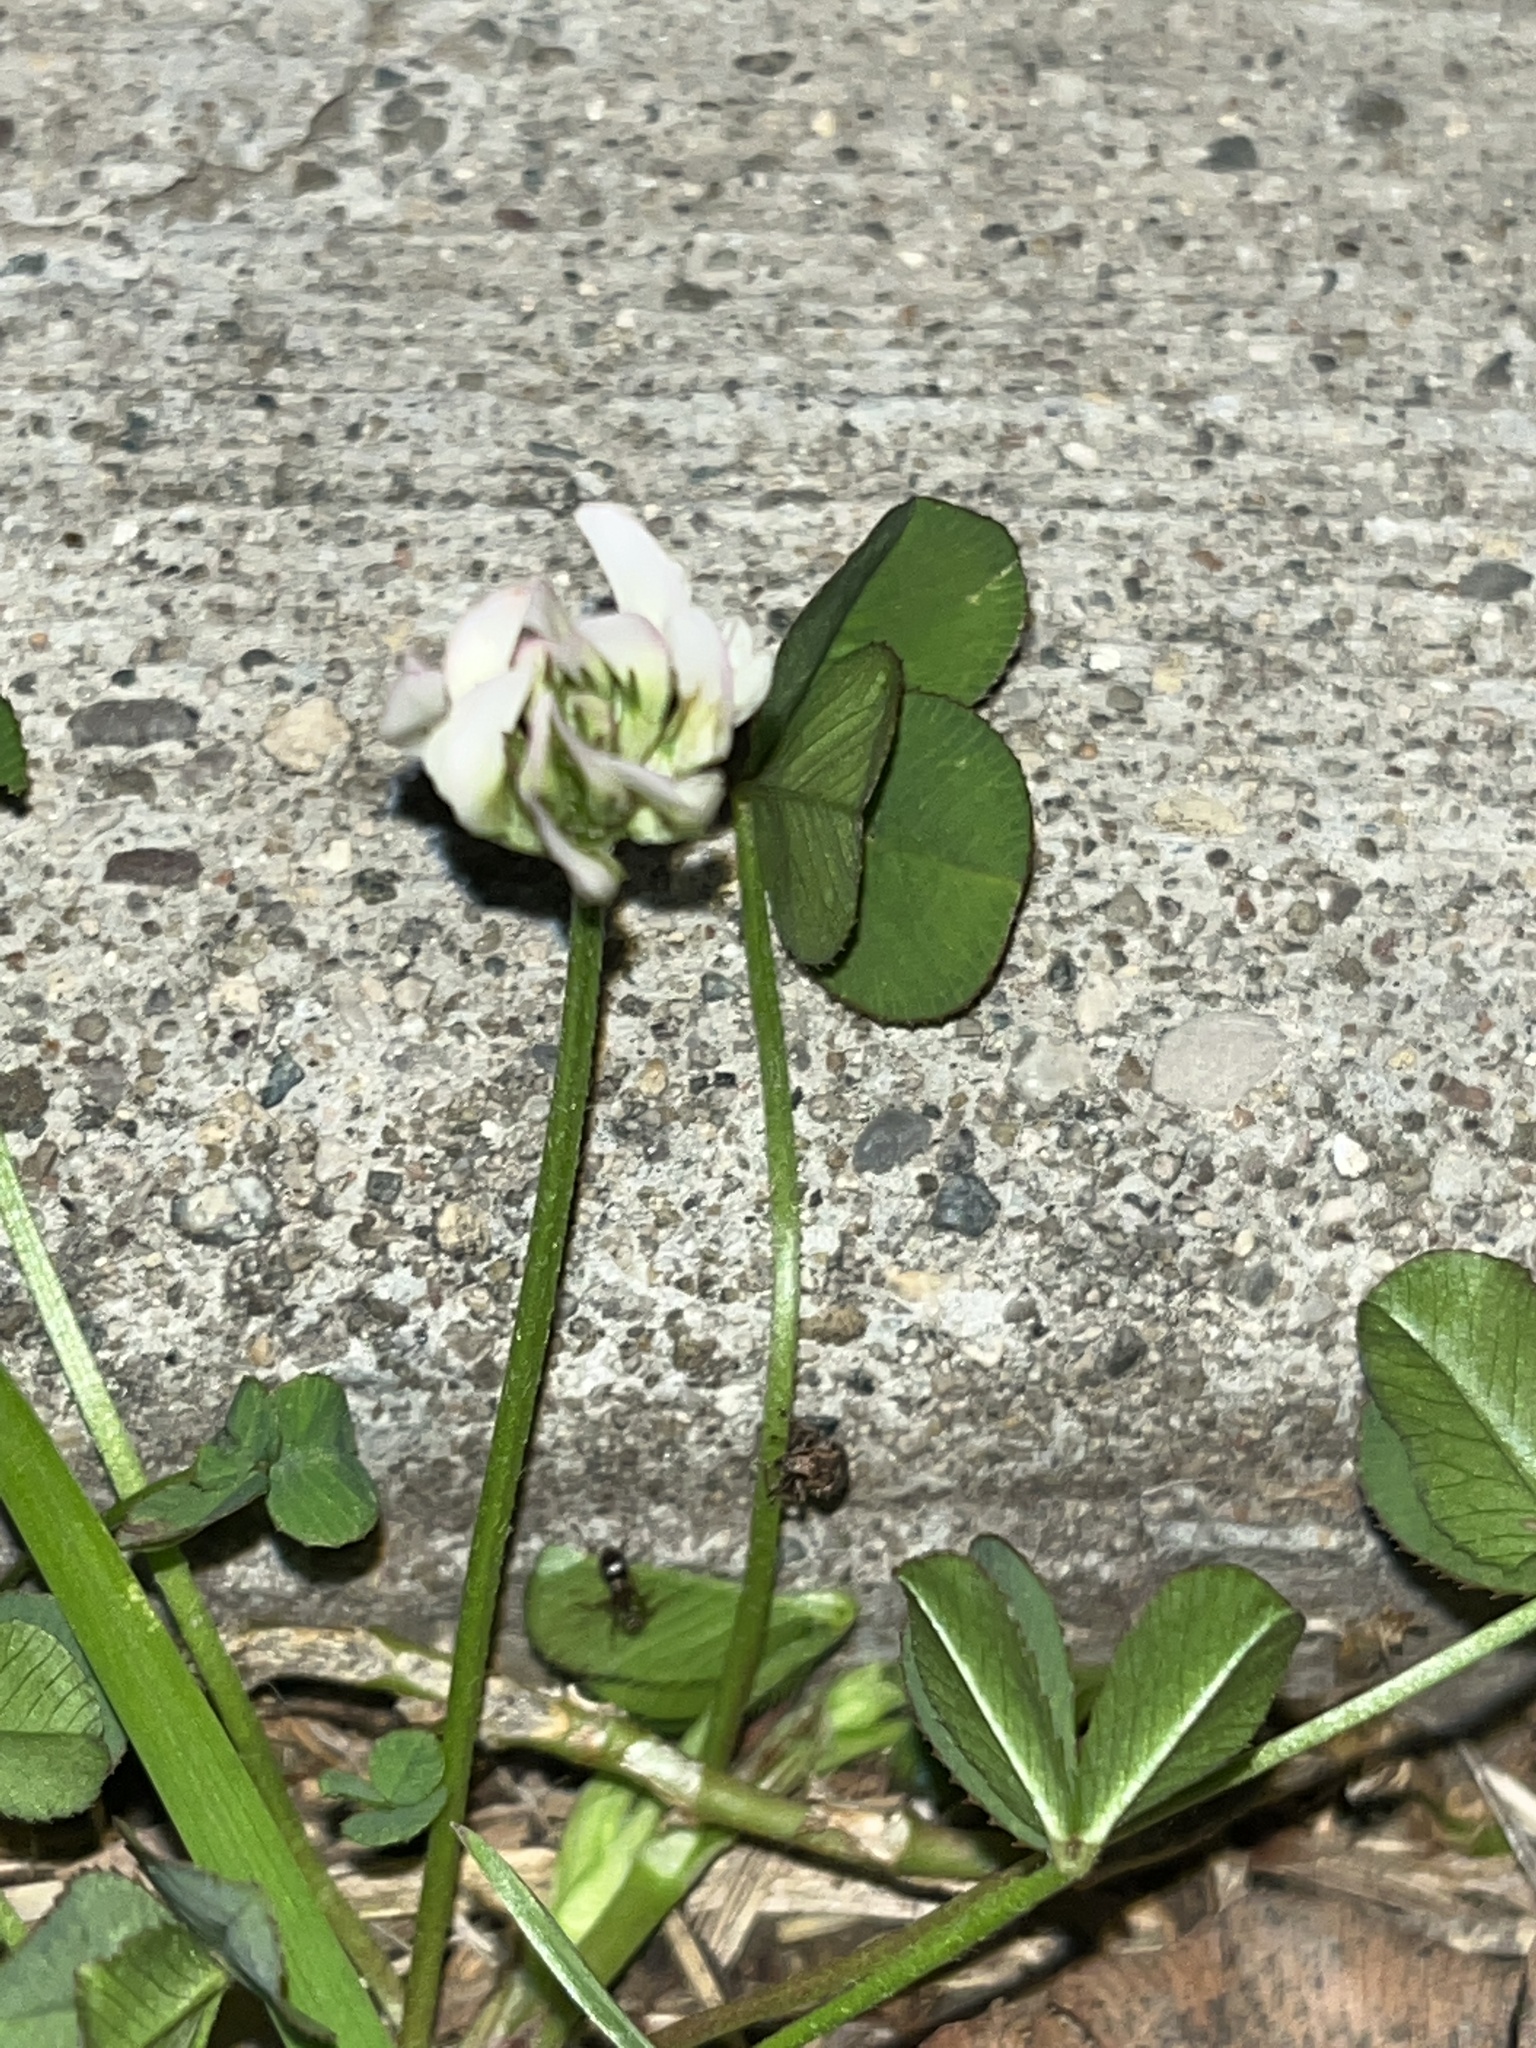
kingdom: Plantae
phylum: Tracheophyta
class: Magnoliopsida
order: Fabales
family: Fabaceae
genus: Trifolium
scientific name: Trifolium repens
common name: White clover
